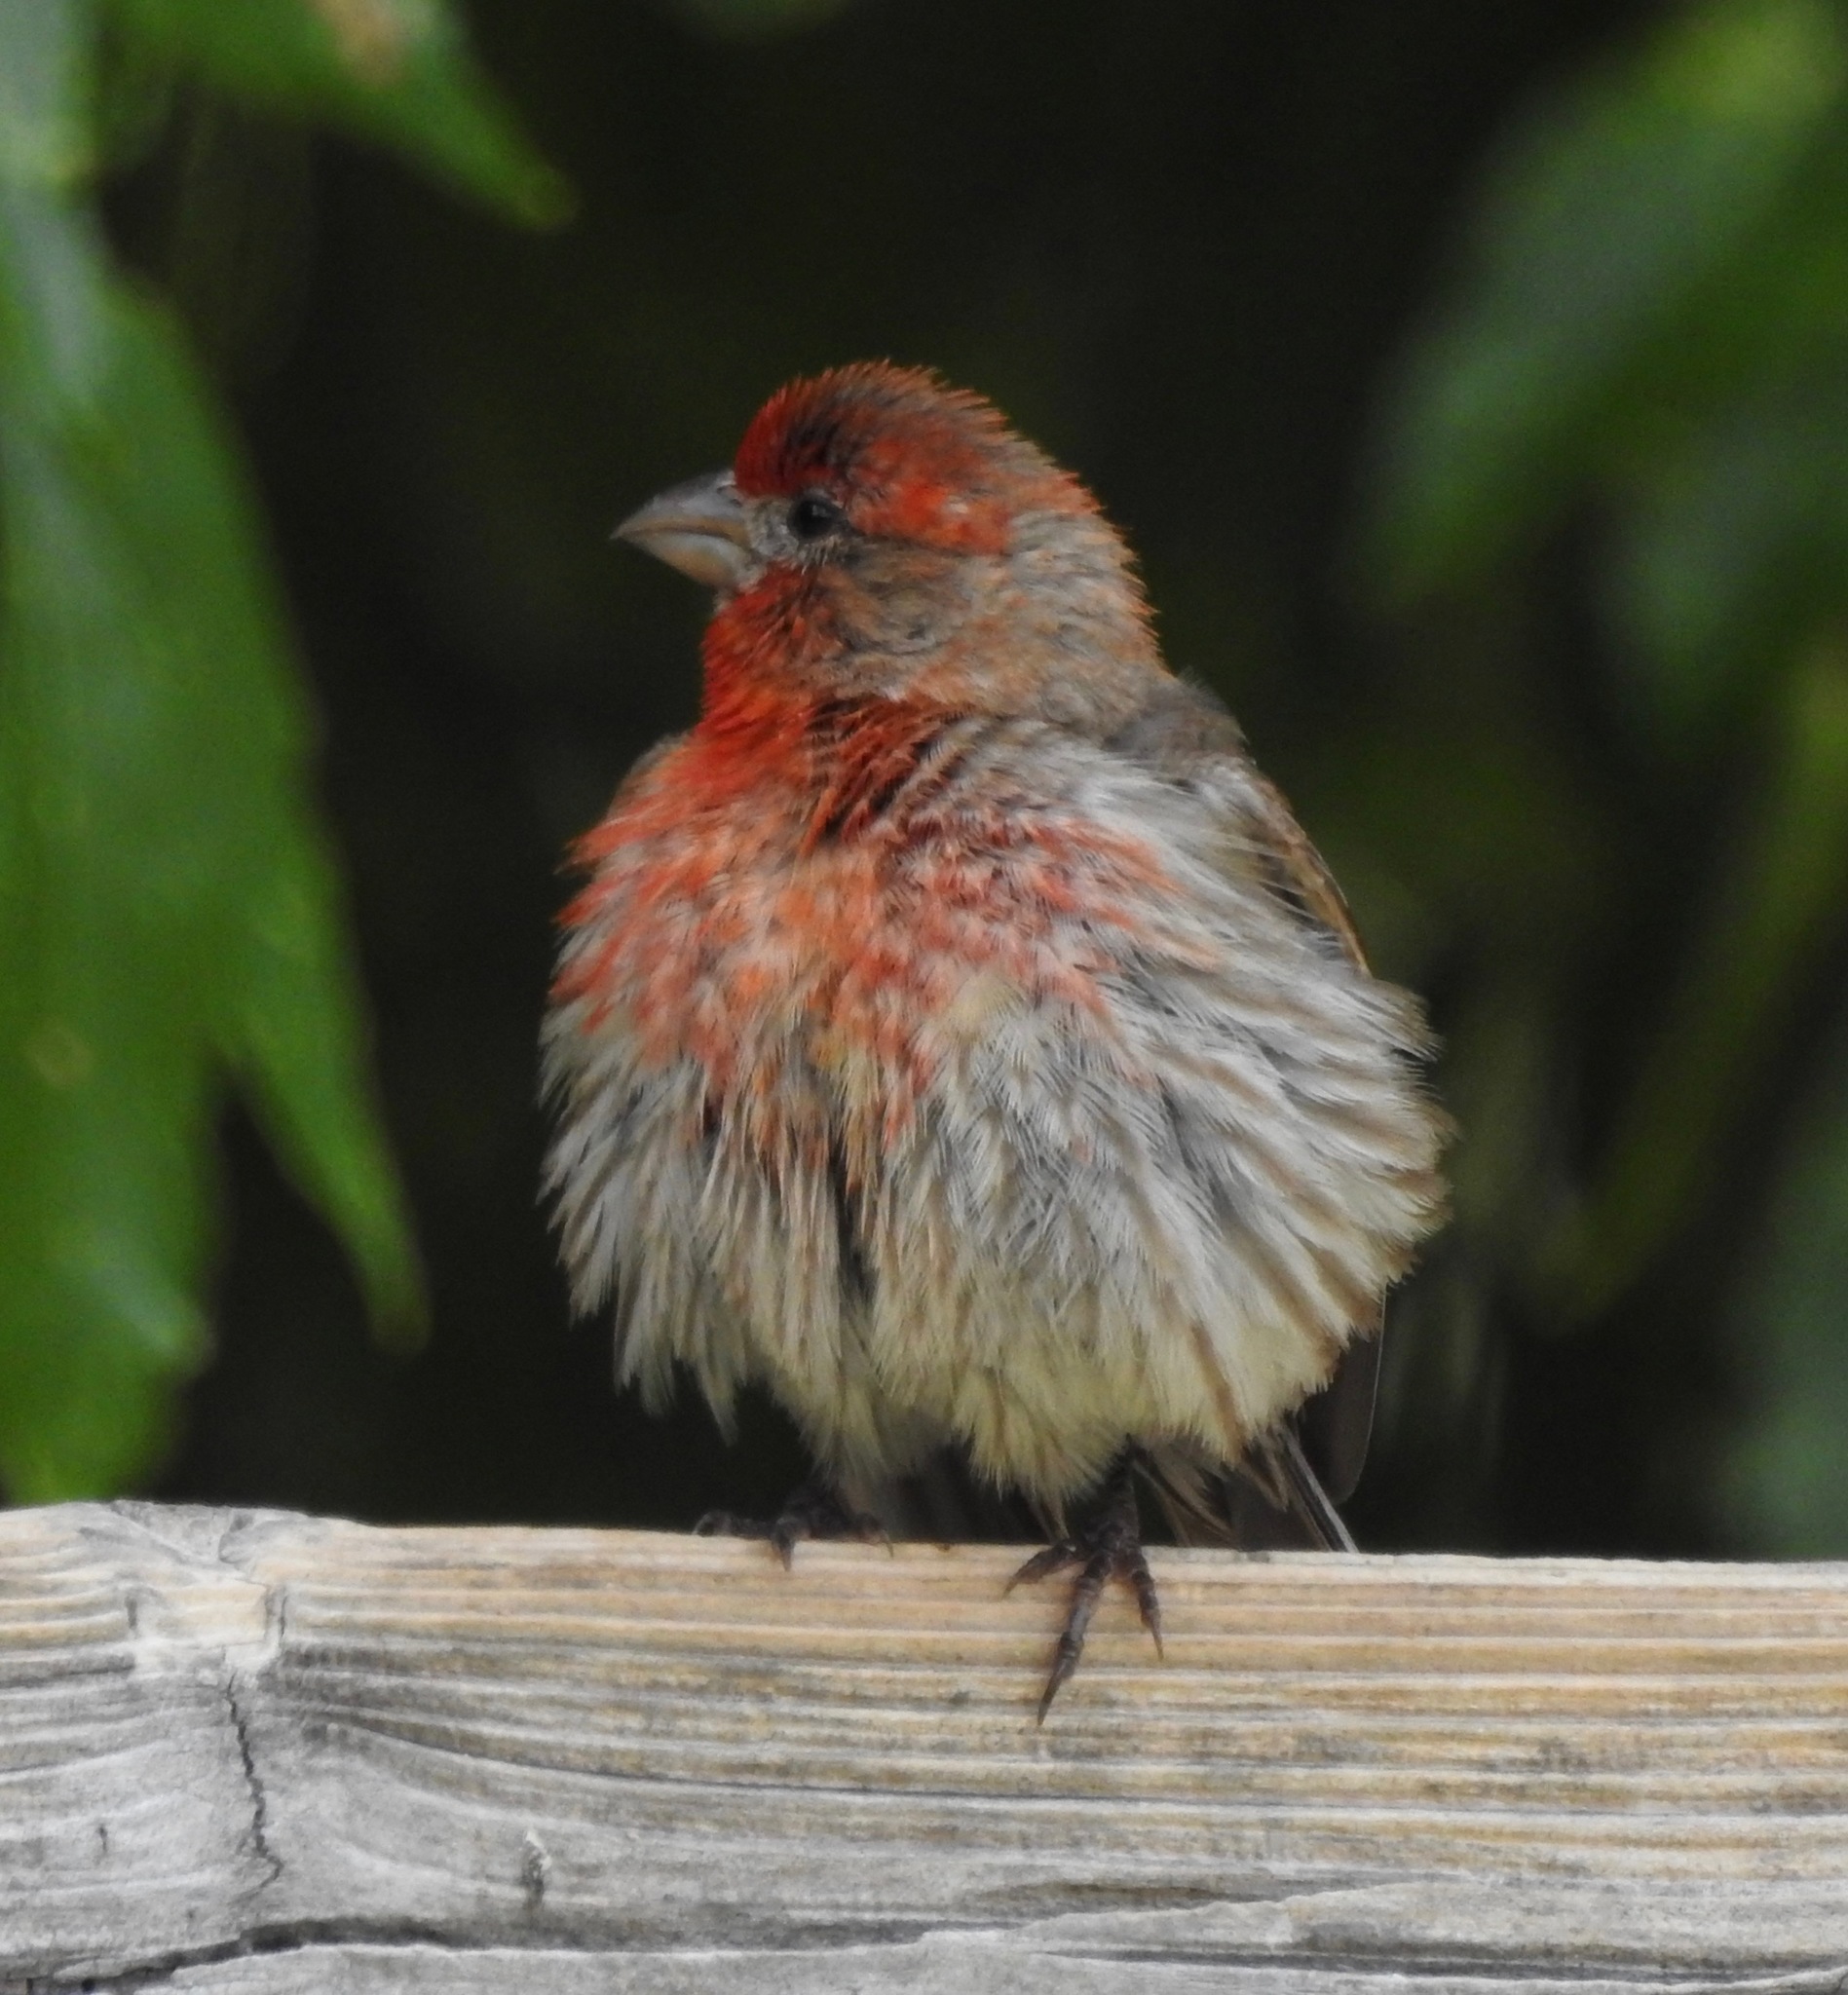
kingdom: Animalia
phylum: Chordata
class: Aves
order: Passeriformes
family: Fringillidae
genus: Haemorhous
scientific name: Haemorhous mexicanus
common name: House finch
